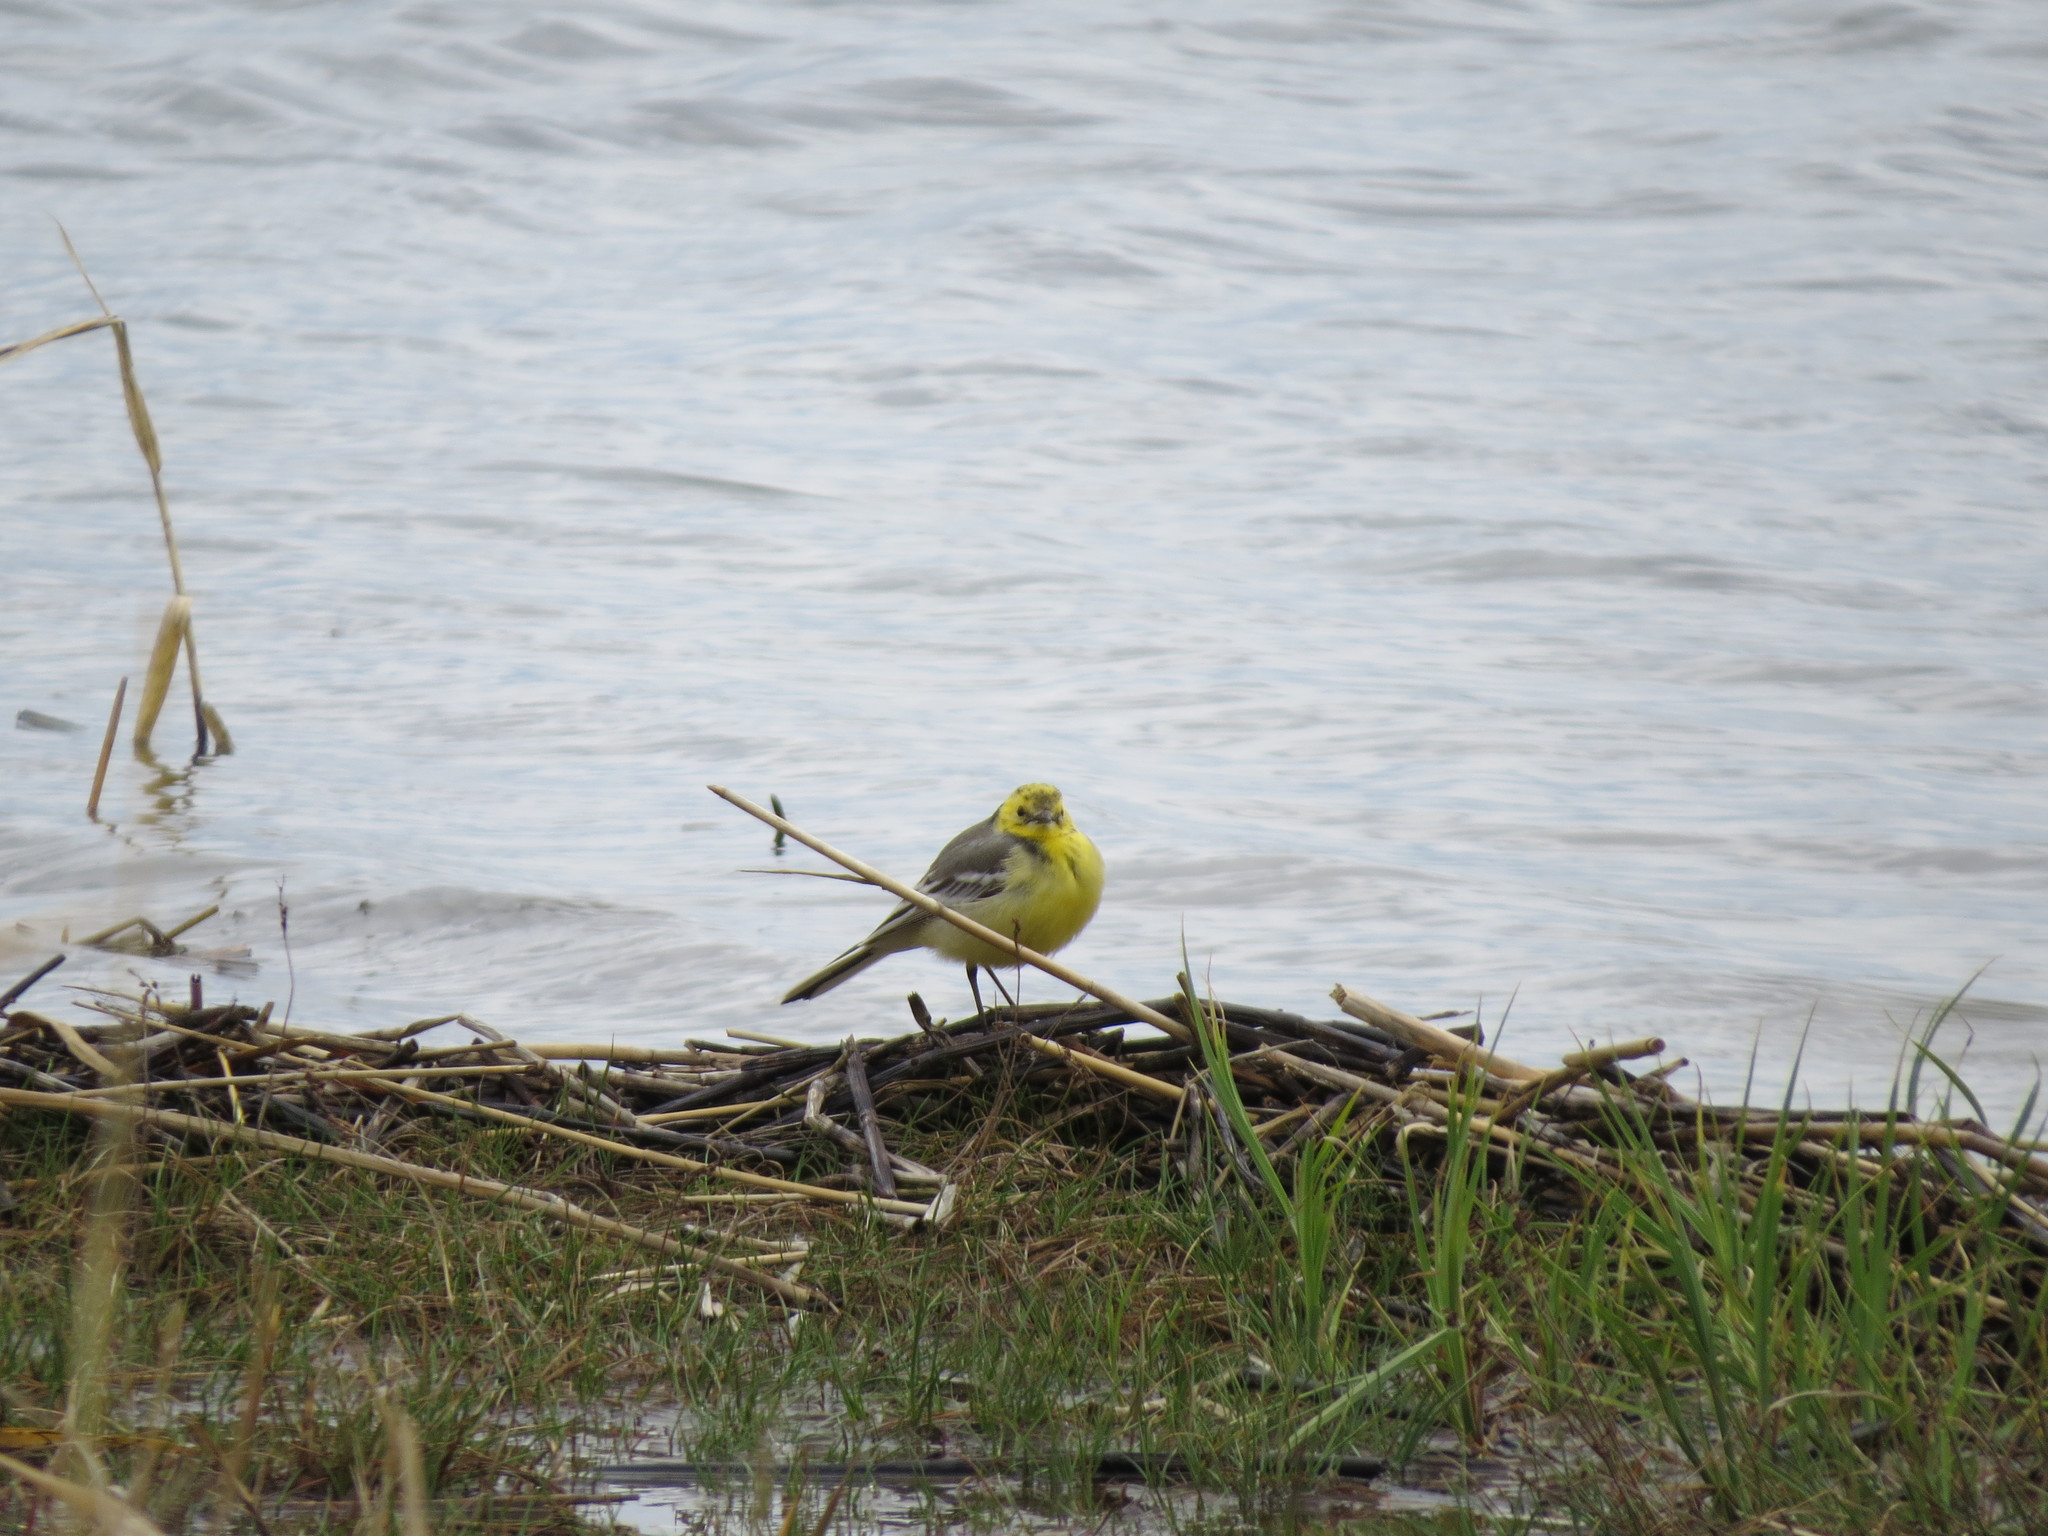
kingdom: Animalia
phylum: Chordata
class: Aves
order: Passeriformes
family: Motacillidae
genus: Motacilla
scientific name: Motacilla citreola
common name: Citrine wagtail
